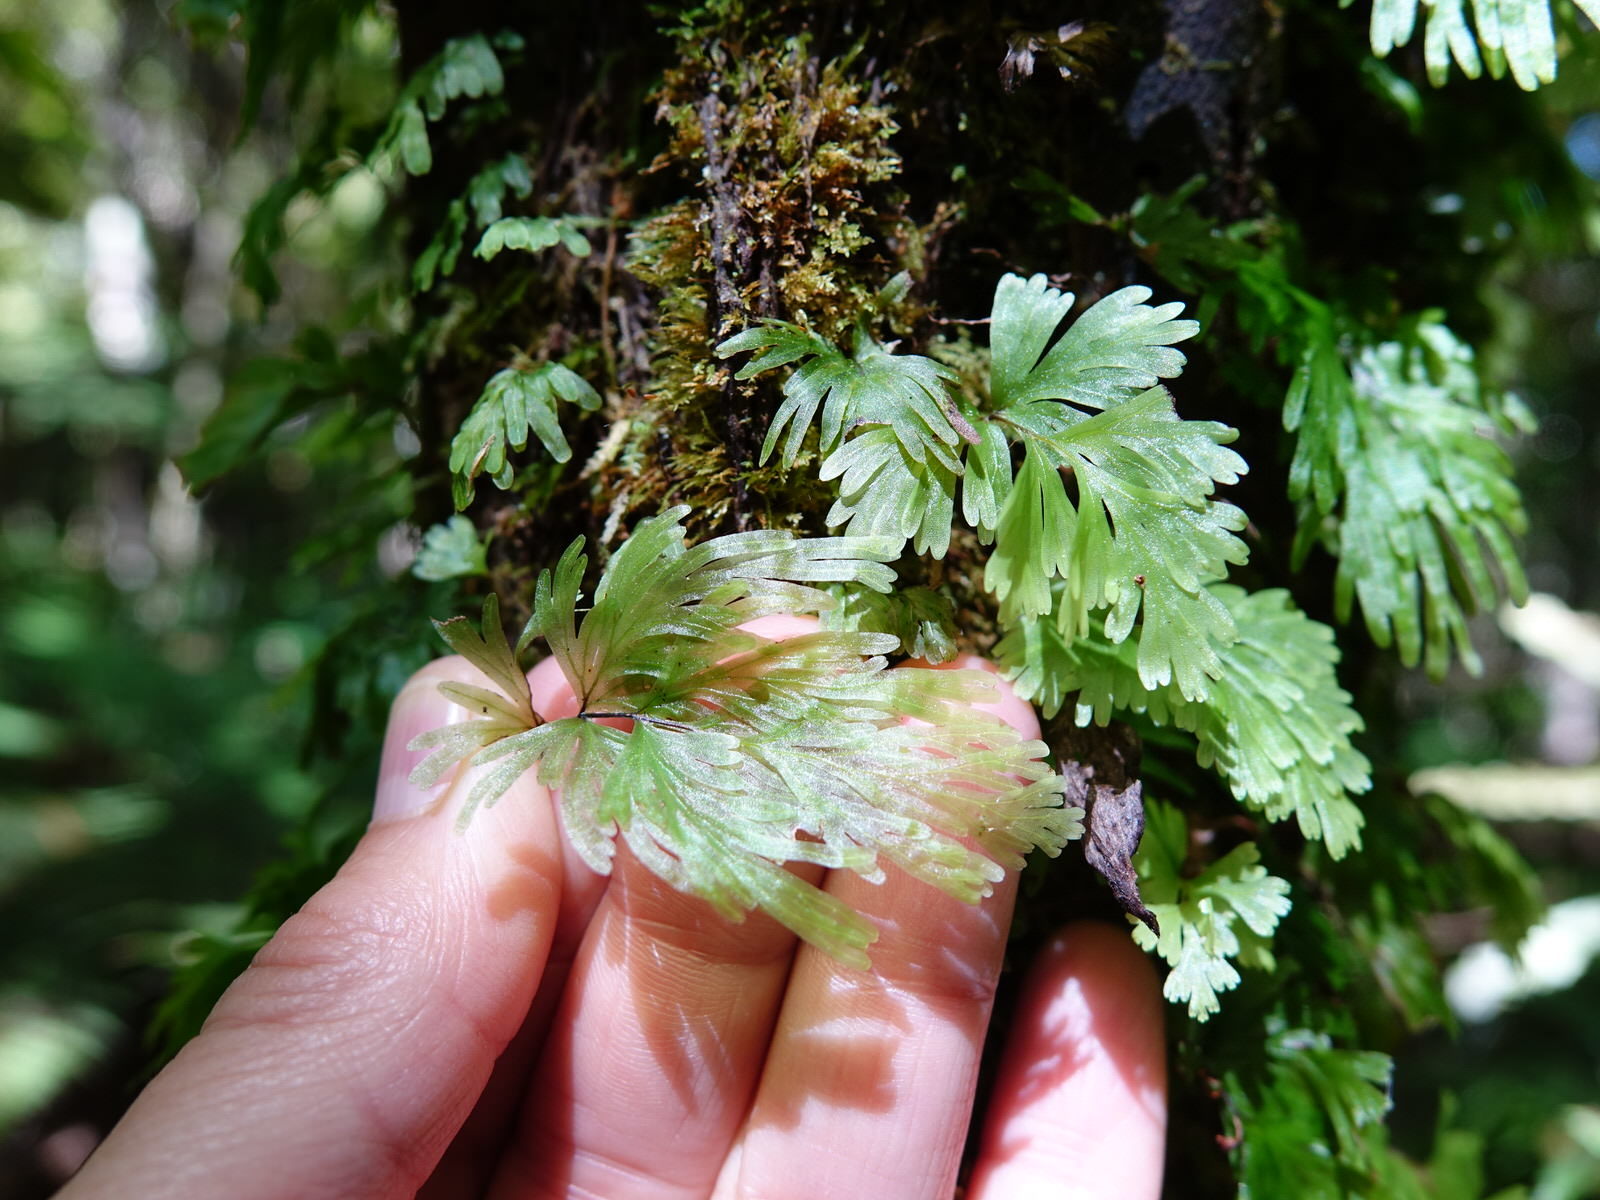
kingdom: Plantae
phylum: Tracheophyta
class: Polypodiopsida
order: Hymenophyllales
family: Hymenophyllaceae
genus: Hymenophyllum
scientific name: Hymenophyllum flabellatum
